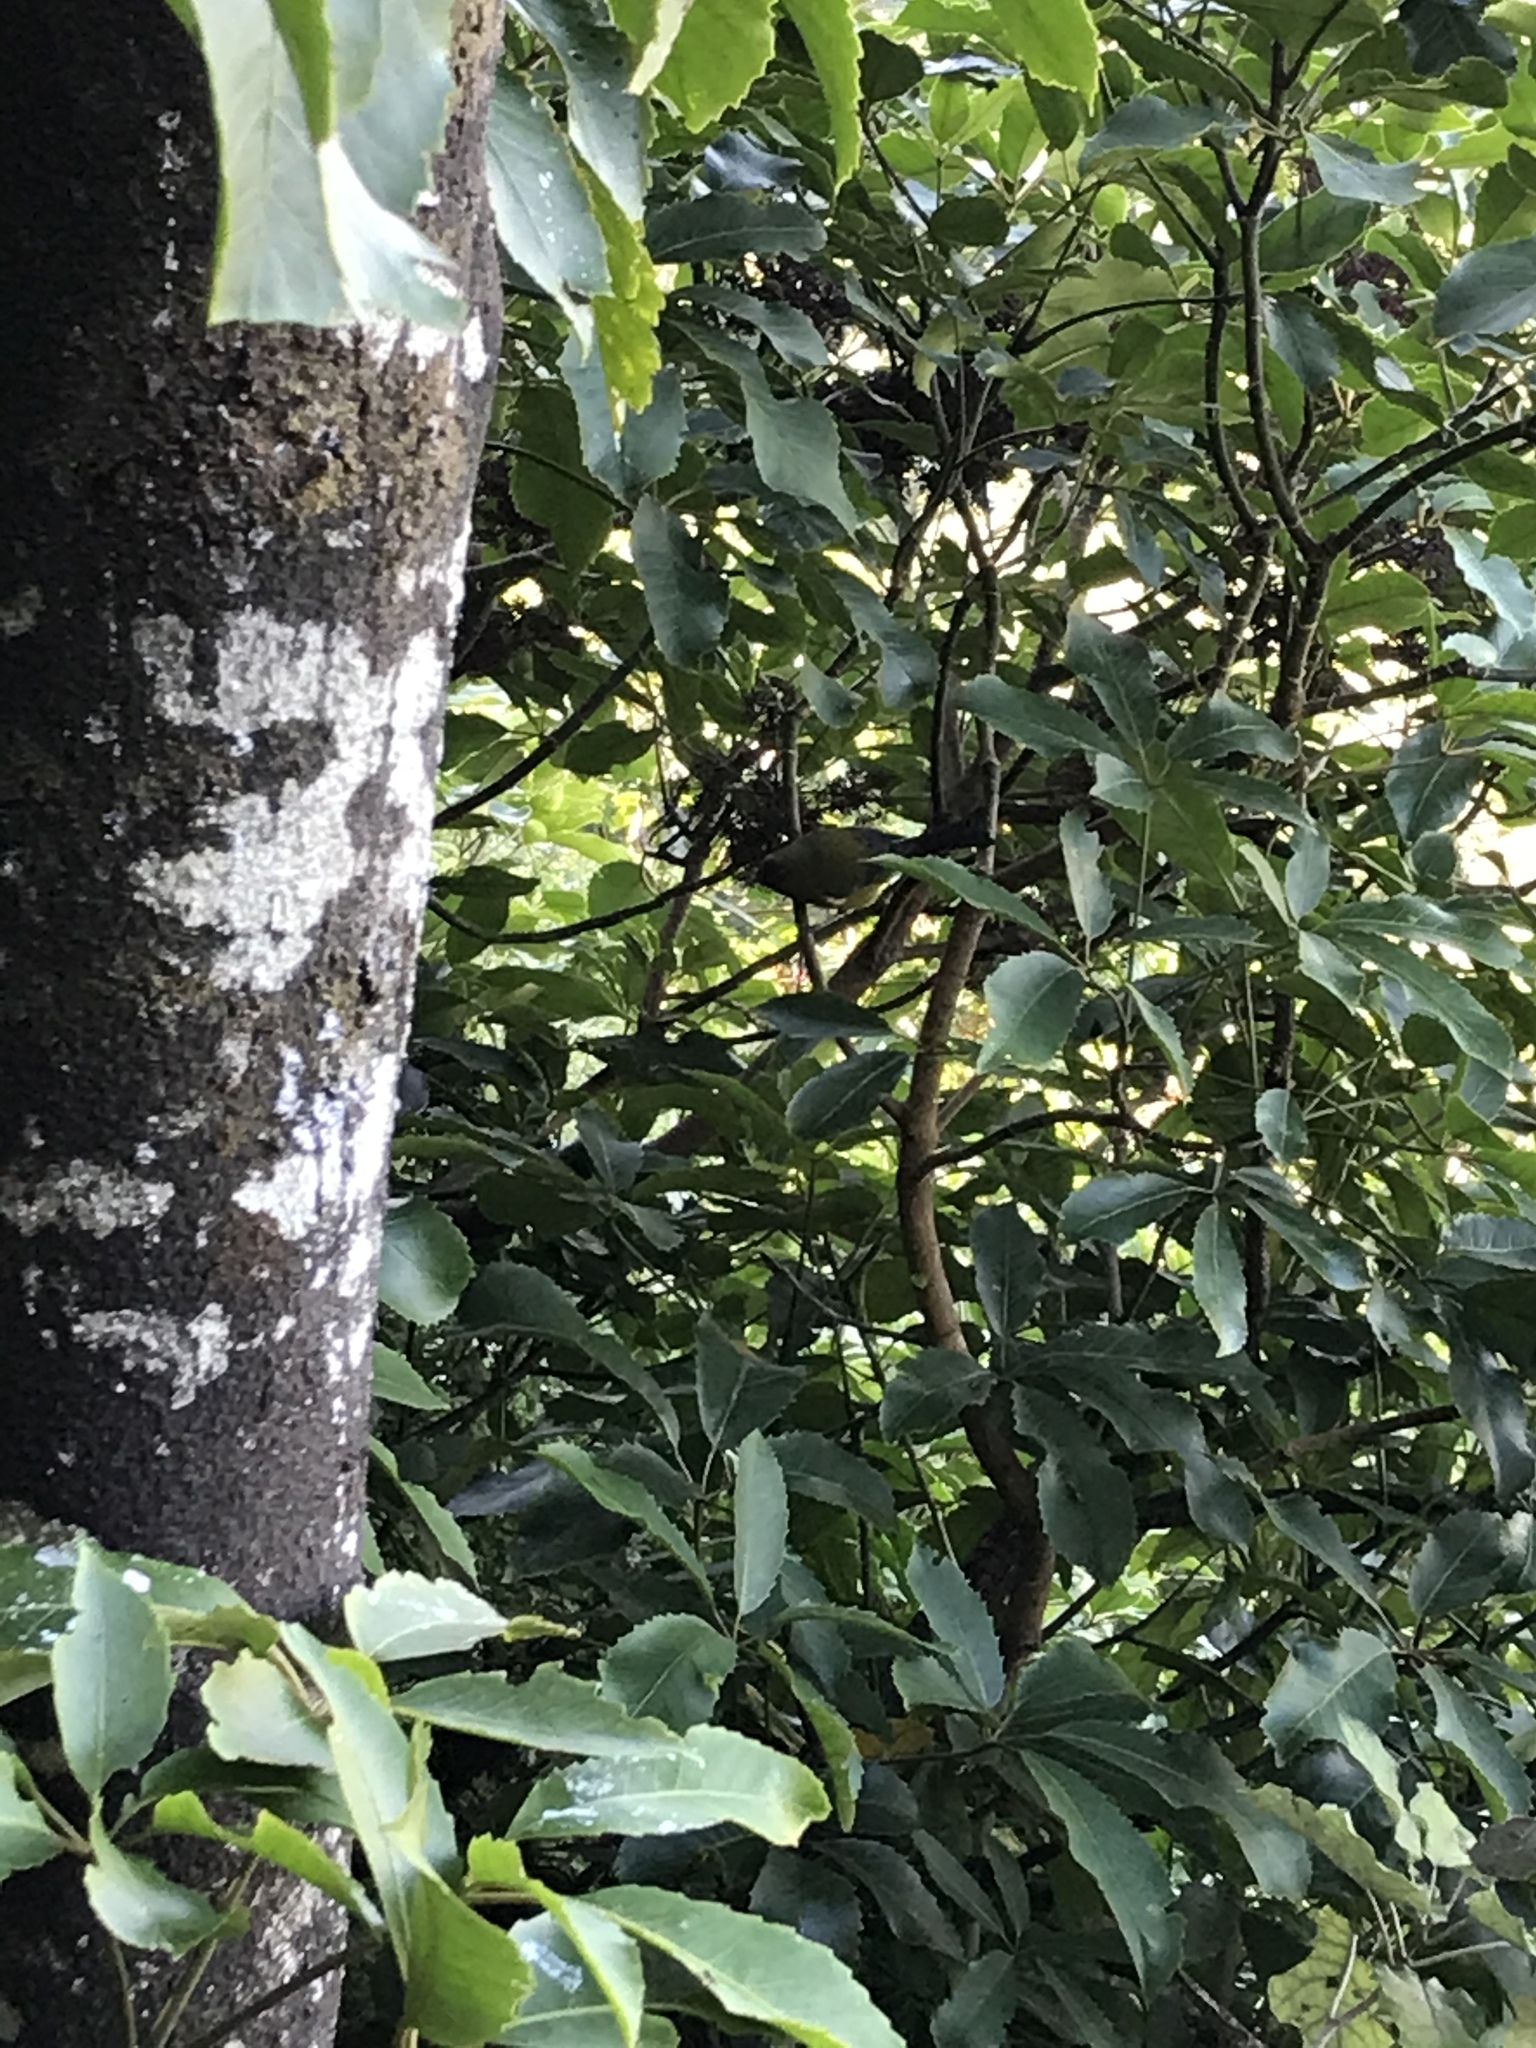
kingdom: Animalia
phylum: Chordata
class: Aves
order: Passeriformes
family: Meliphagidae
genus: Anthornis
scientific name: Anthornis melanura
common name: New zealand bellbird
